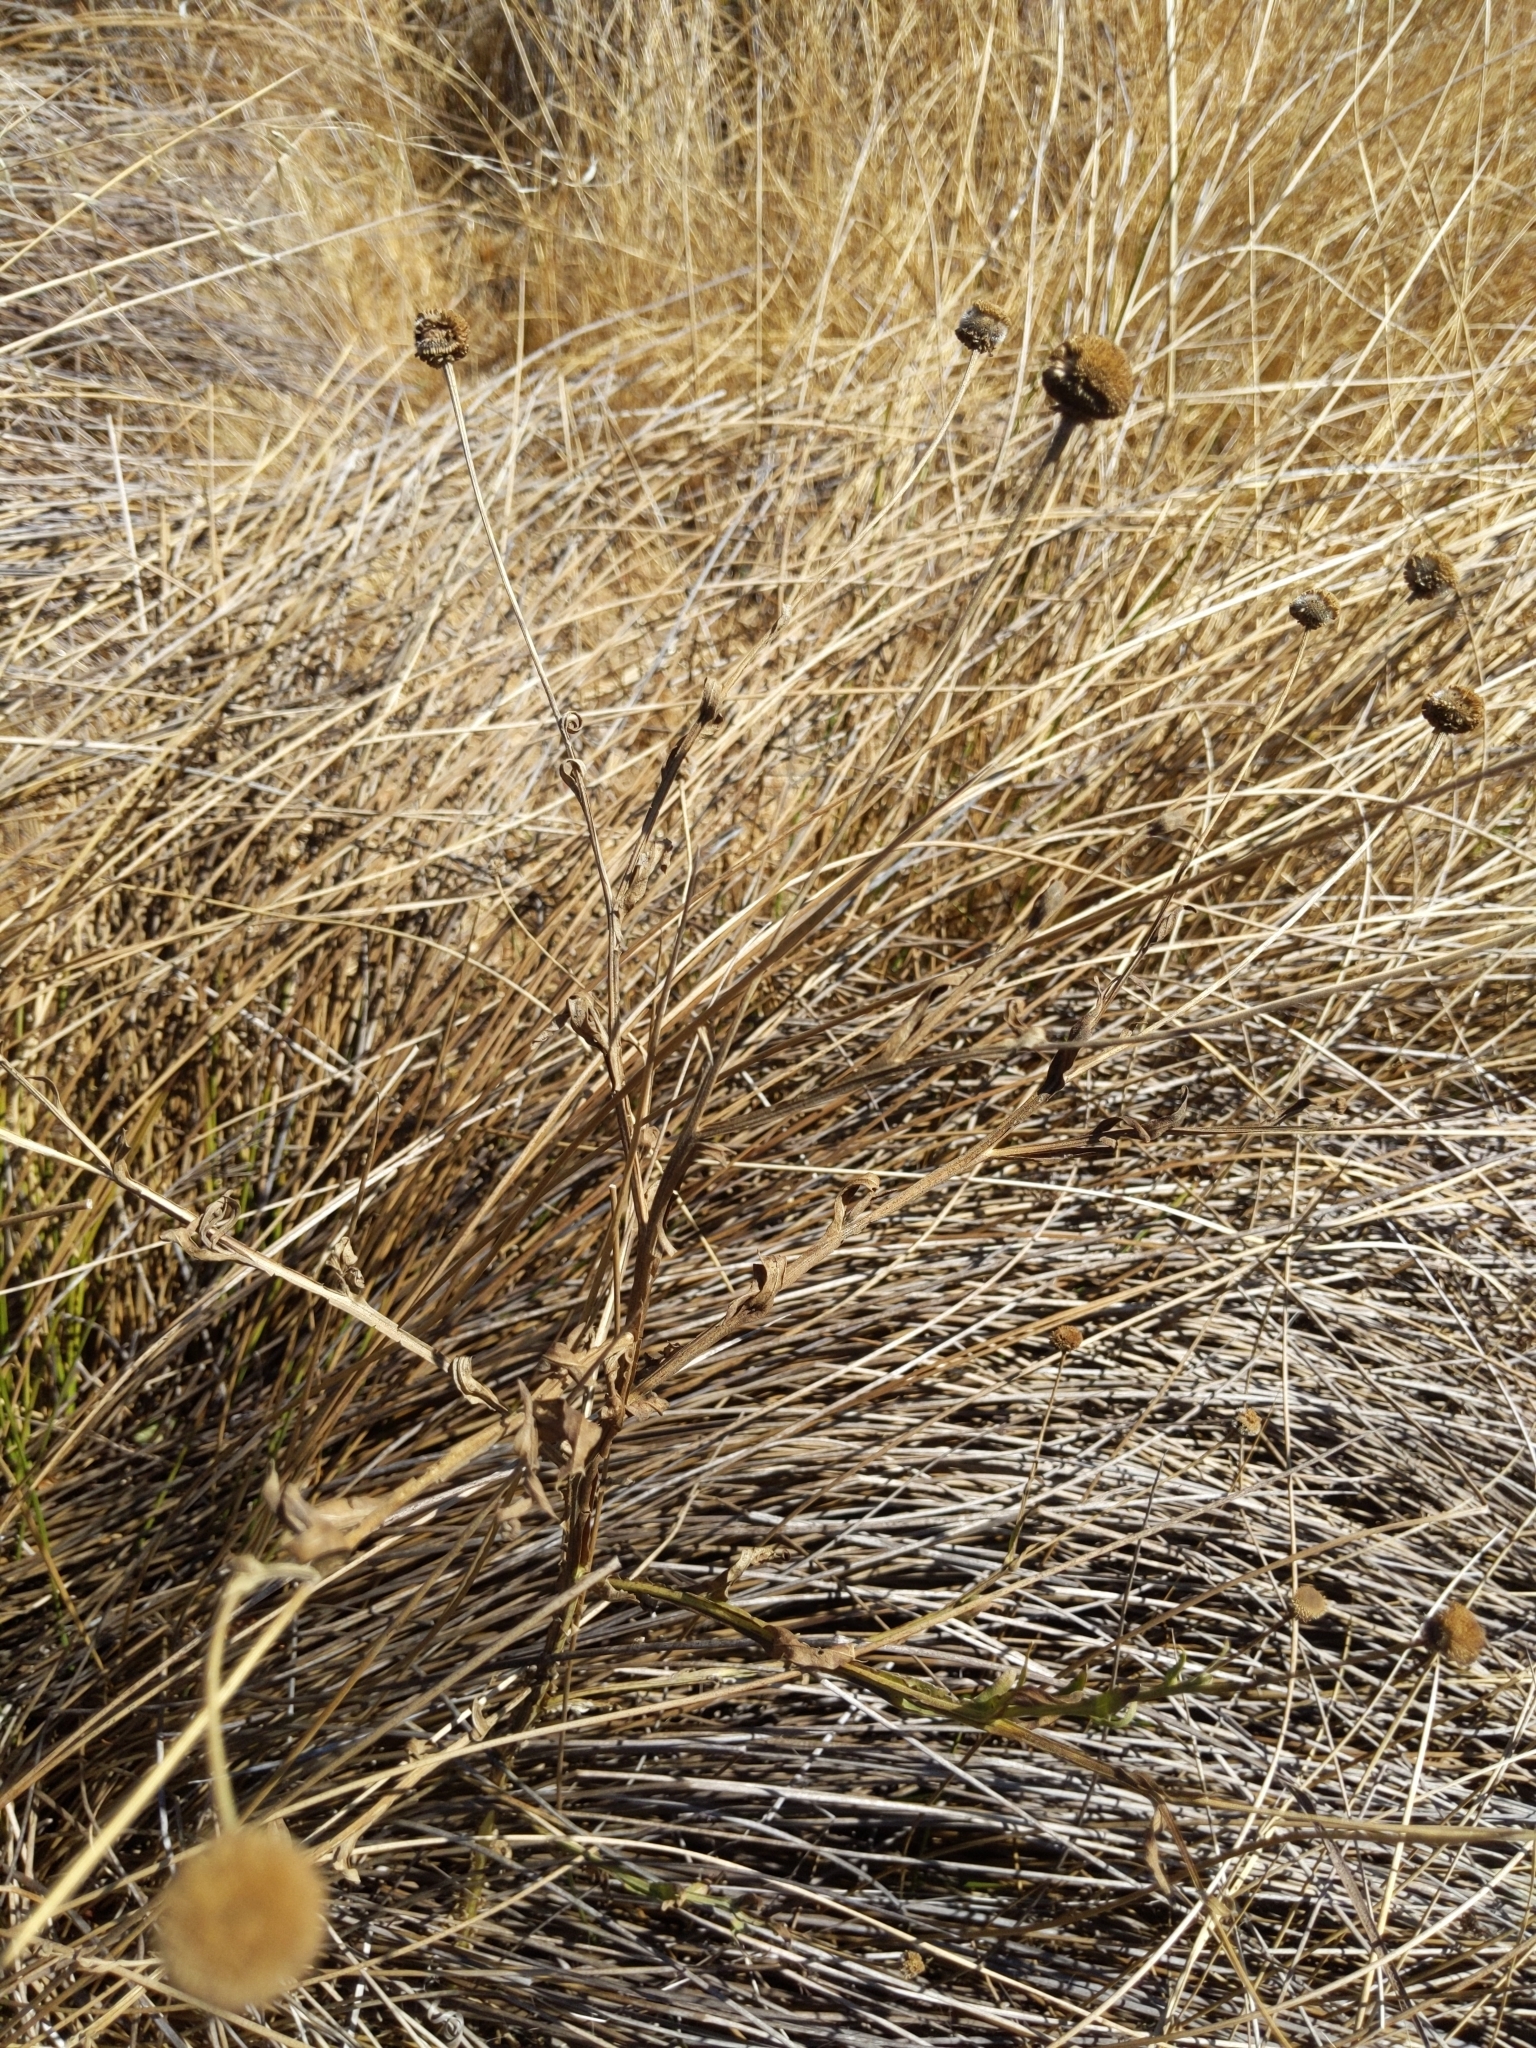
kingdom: Plantae
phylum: Tracheophyta
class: Magnoliopsida
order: Asterales
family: Asteraceae
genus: Helenium
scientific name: Helenium puberulum
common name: Sneezewort
